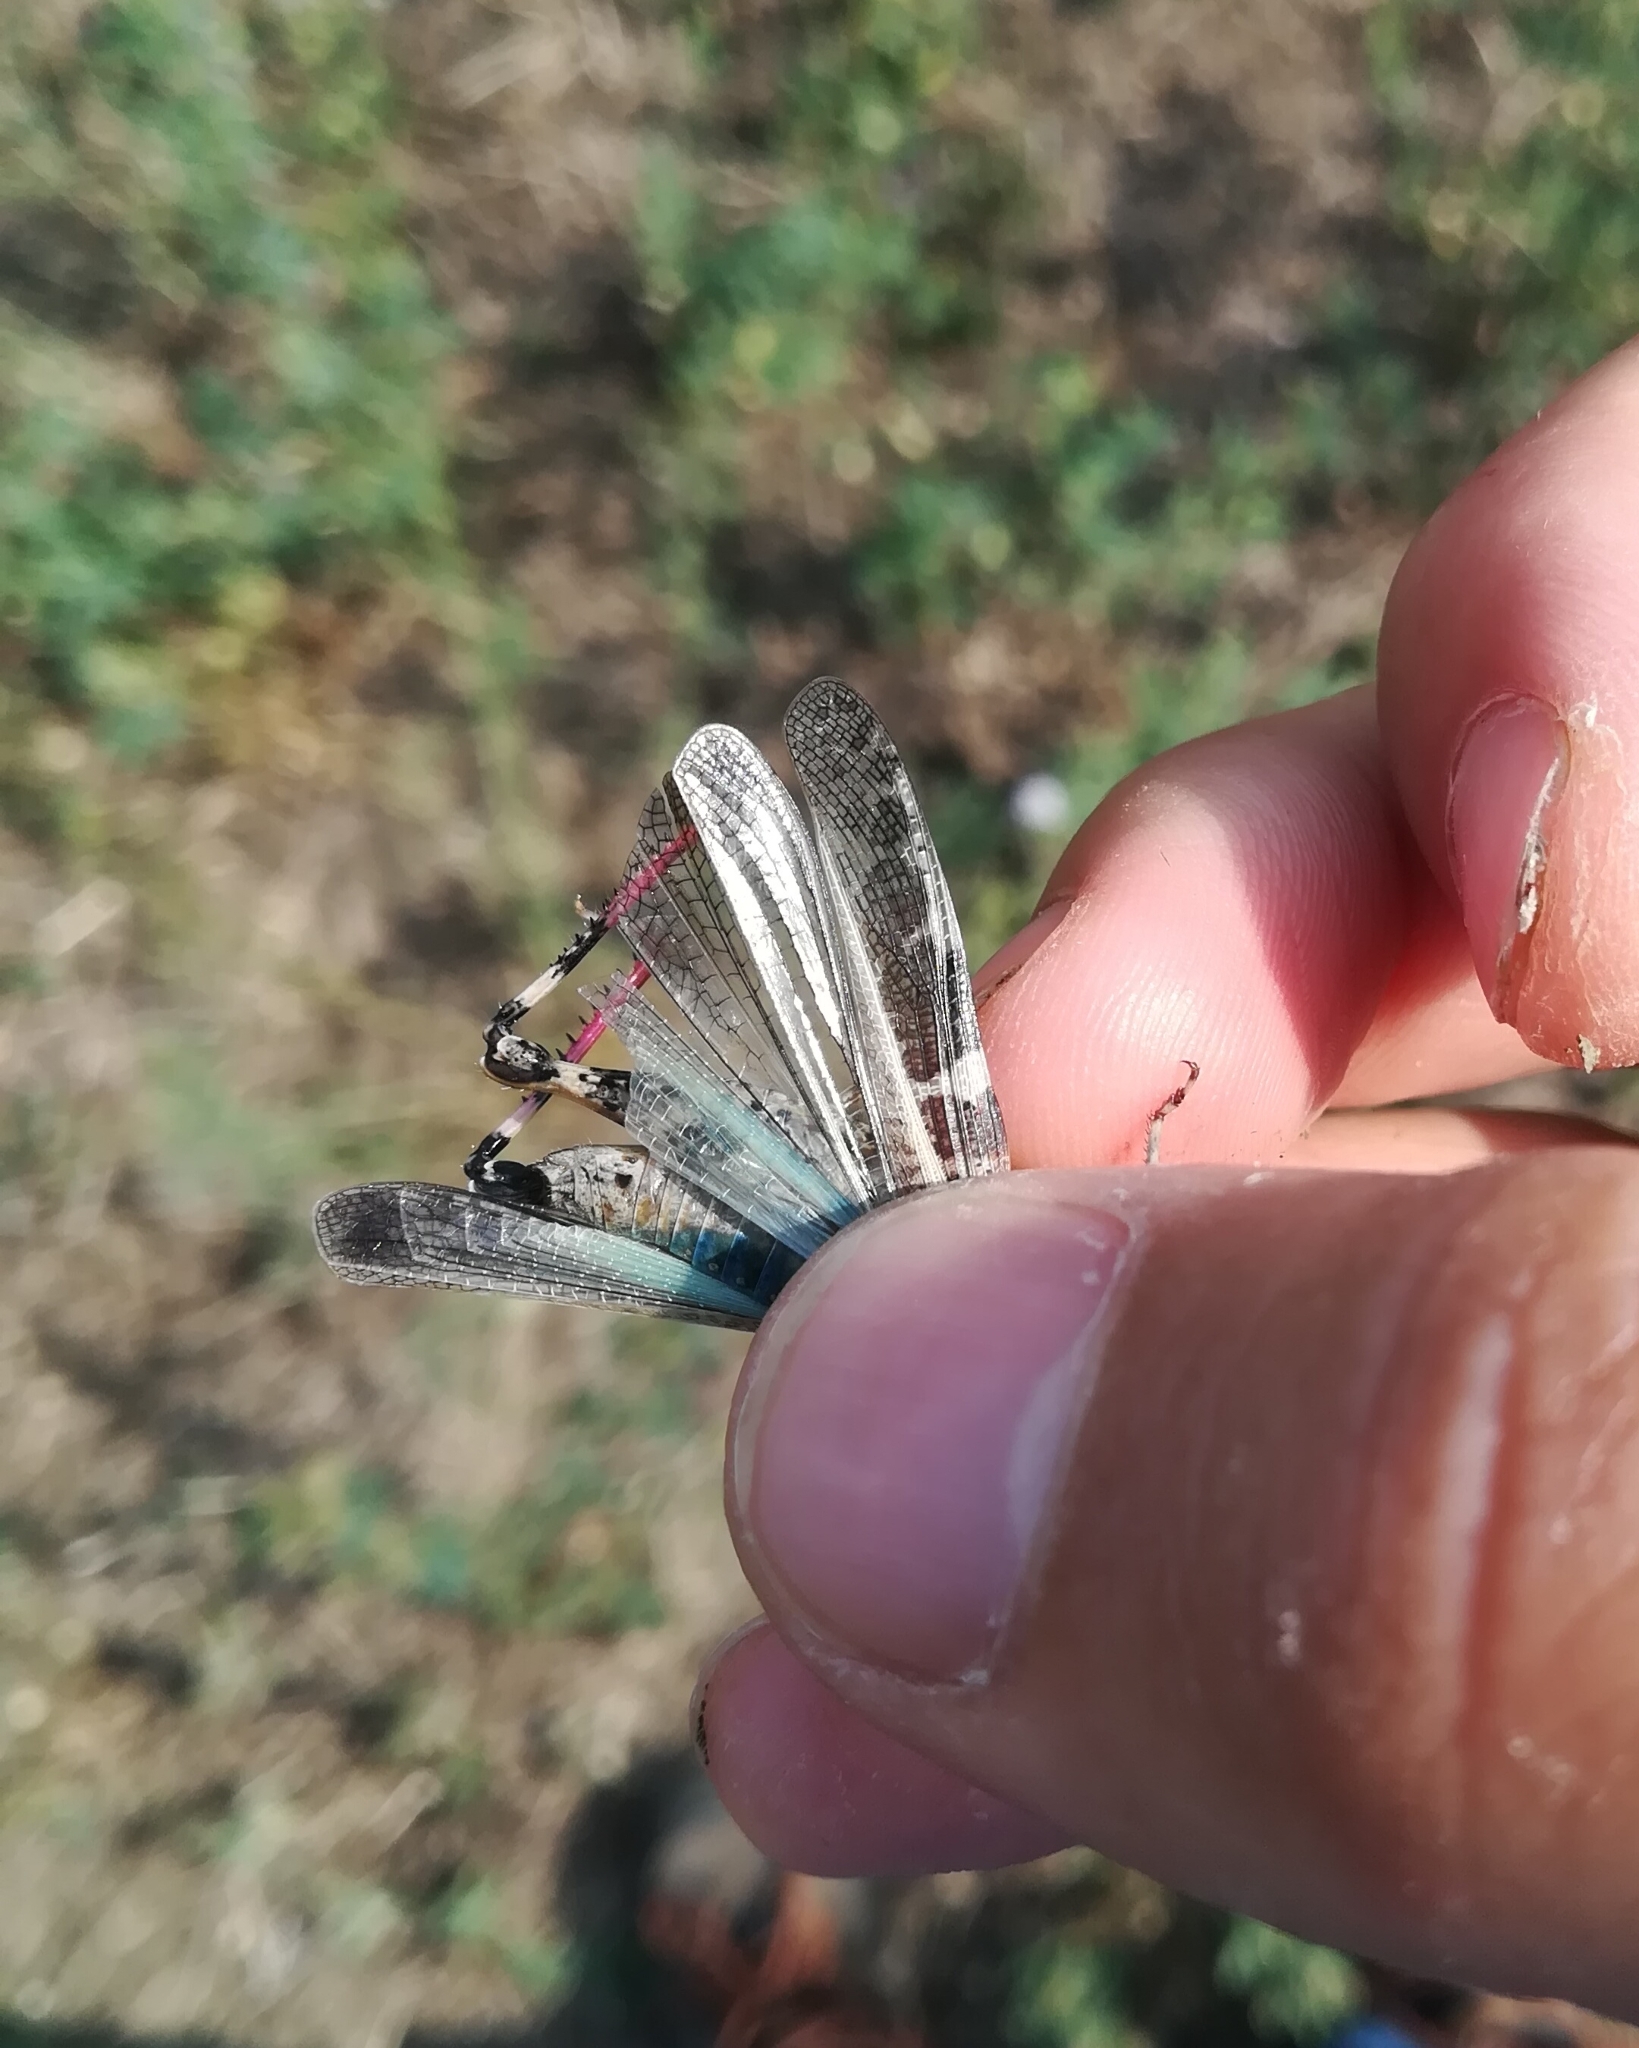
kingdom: Animalia
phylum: Arthropoda
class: Insecta
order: Orthoptera
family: Acrididae
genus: Aiolopus
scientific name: Aiolopus strepens
